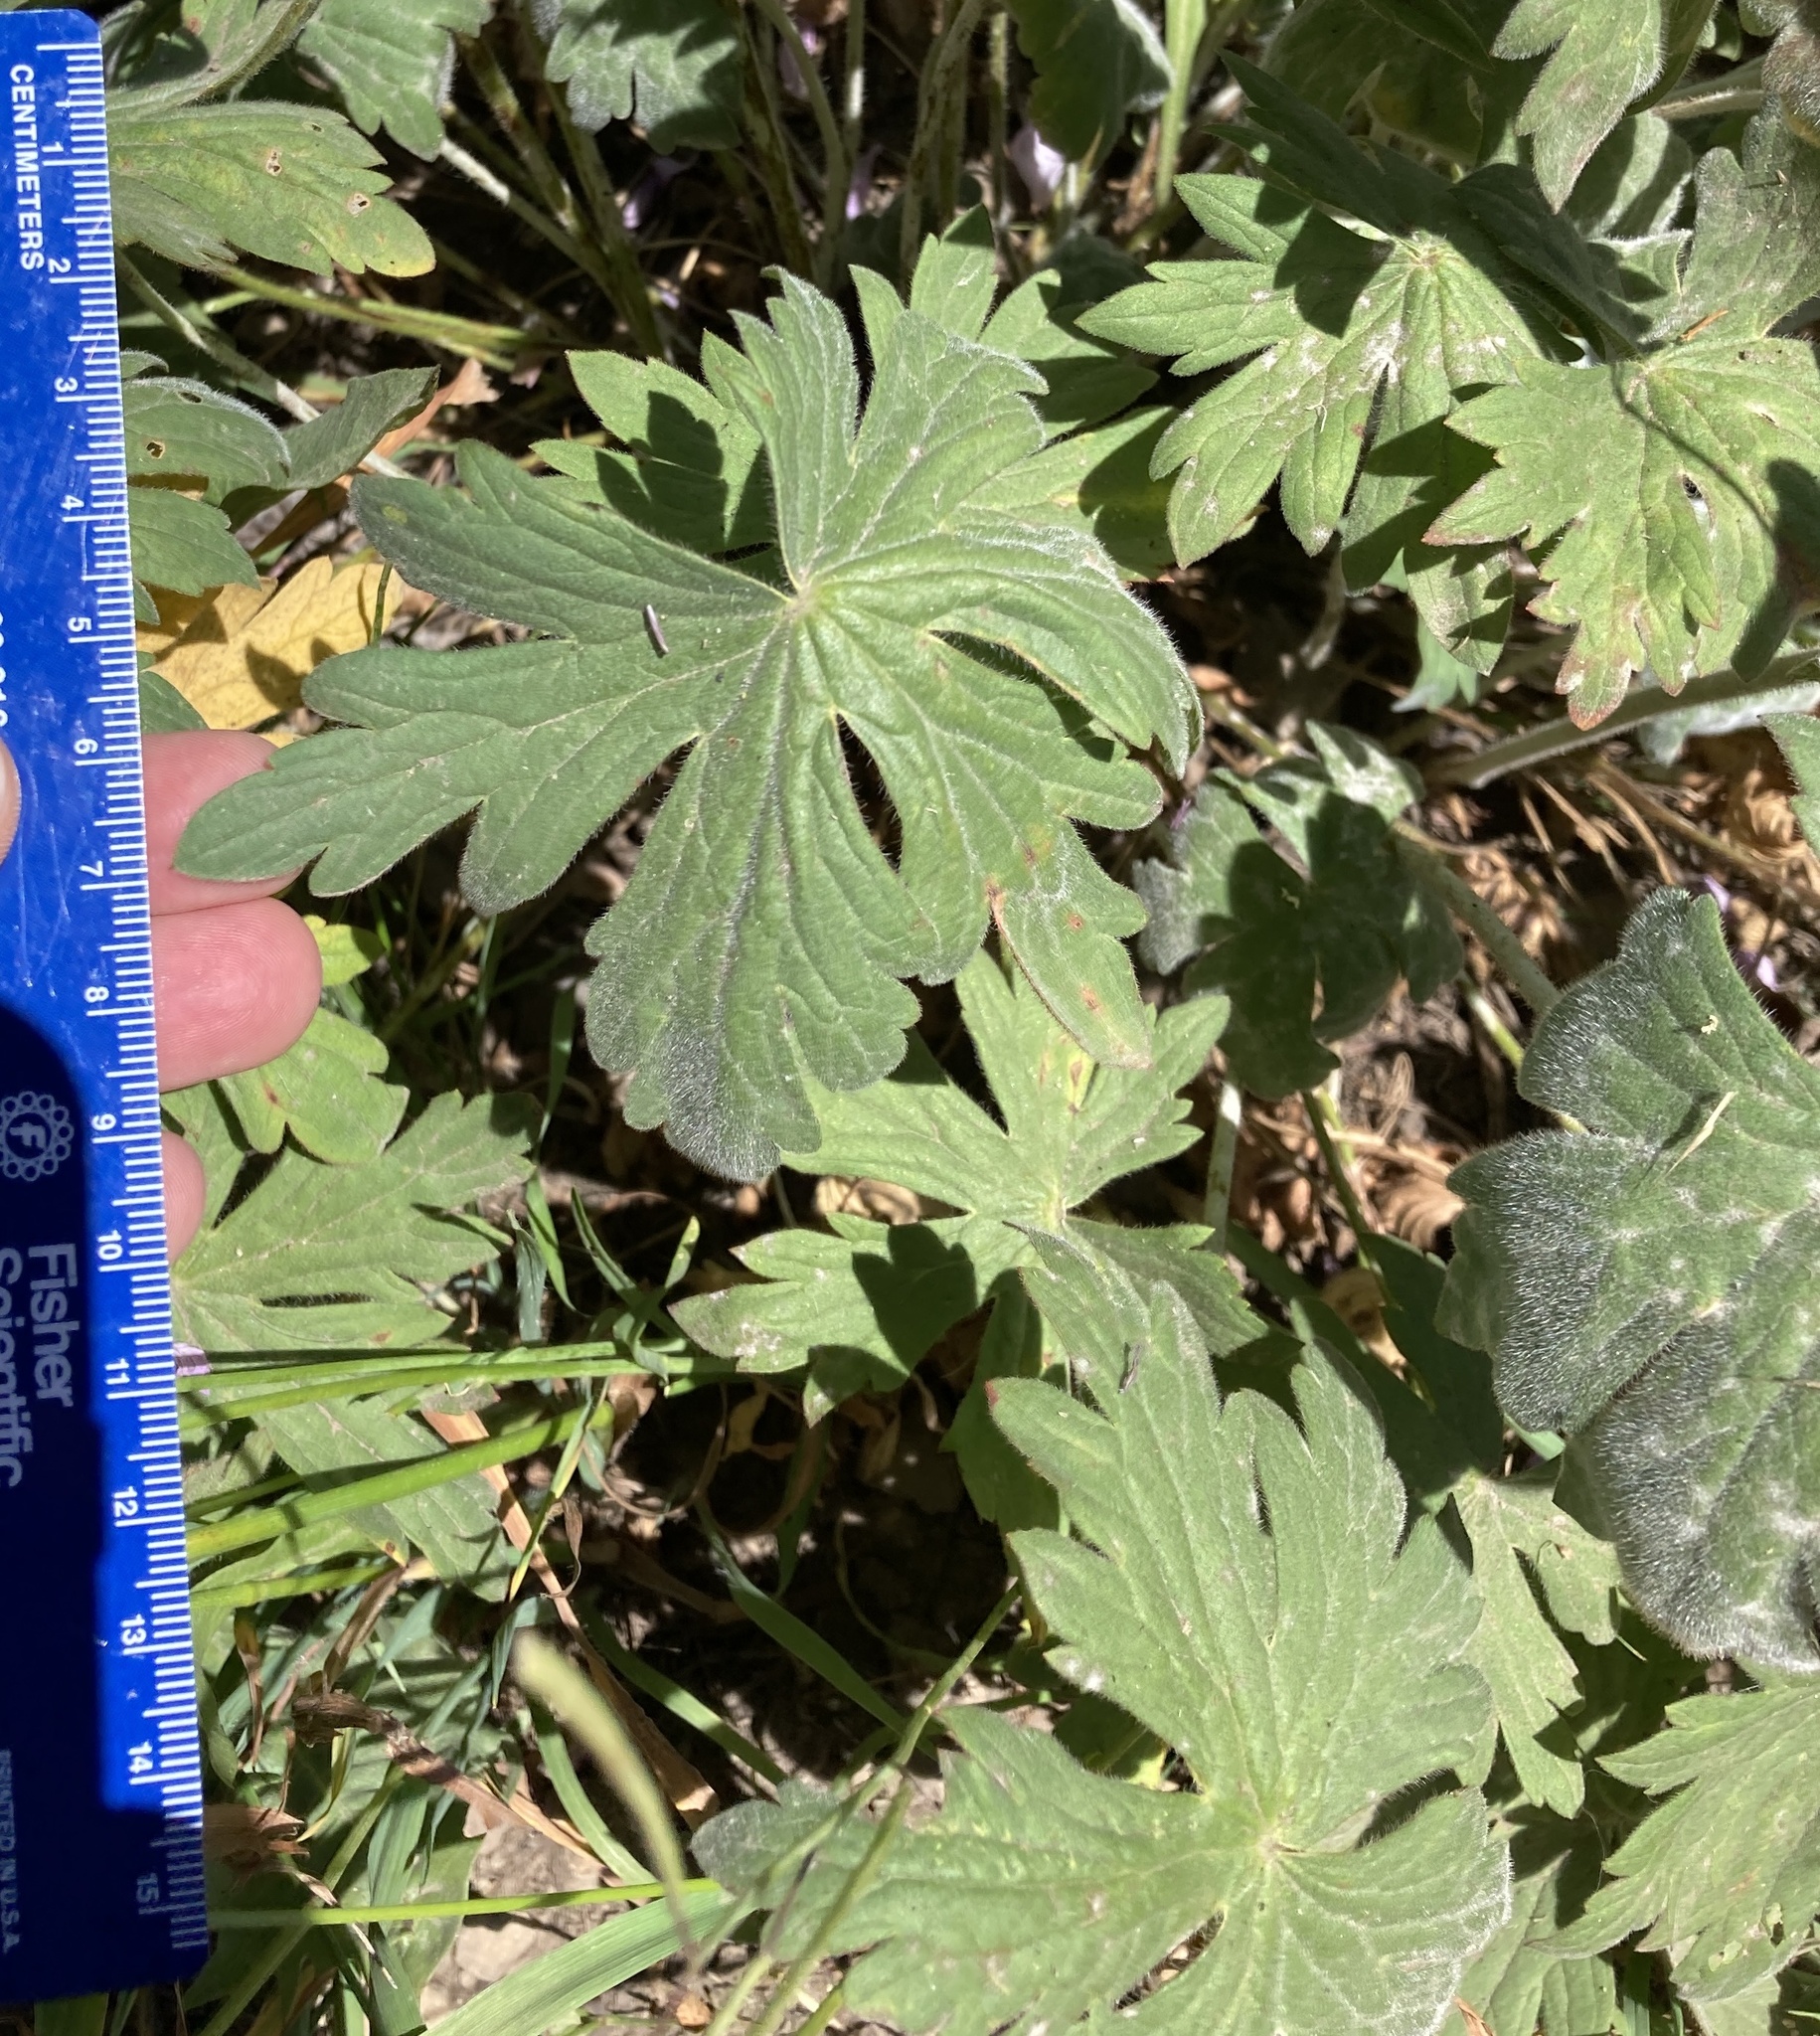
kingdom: Plantae
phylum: Tracheophyta
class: Magnoliopsida
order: Geraniales
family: Geraniaceae
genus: Geranium
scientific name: Geranium viscosissimum
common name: Purple geranium
